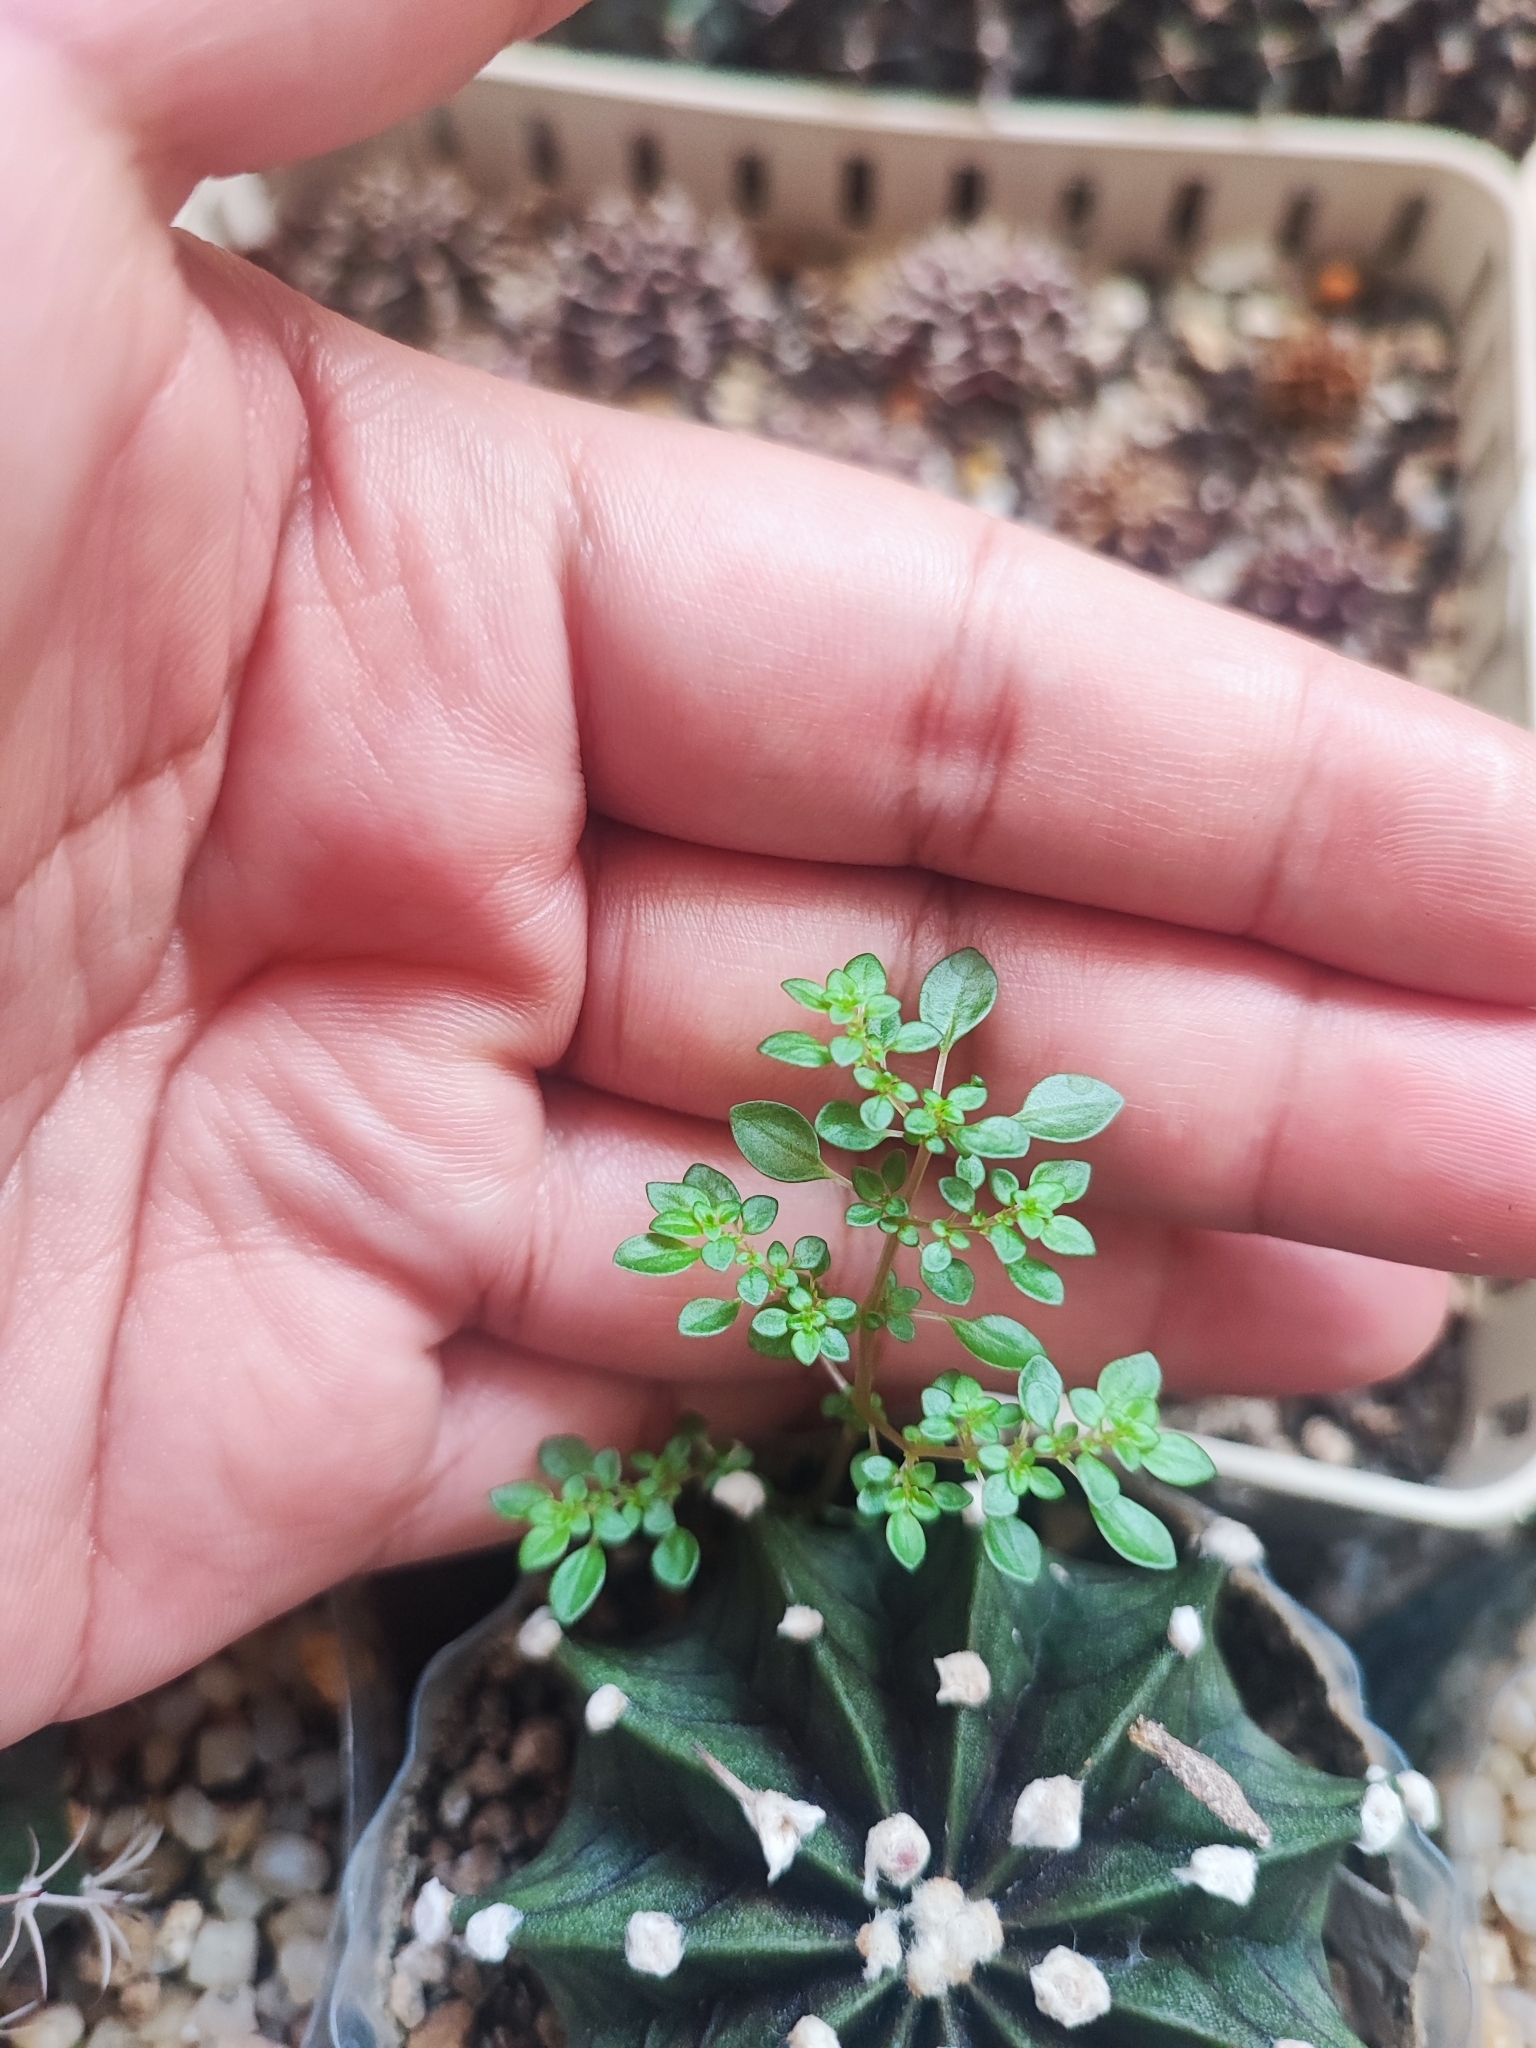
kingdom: Plantae
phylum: Tracheophyta
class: Magnoliopsida
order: Rosales
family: Urticaceae
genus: Pilea
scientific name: Pilea microphylla
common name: Artillery-plant
